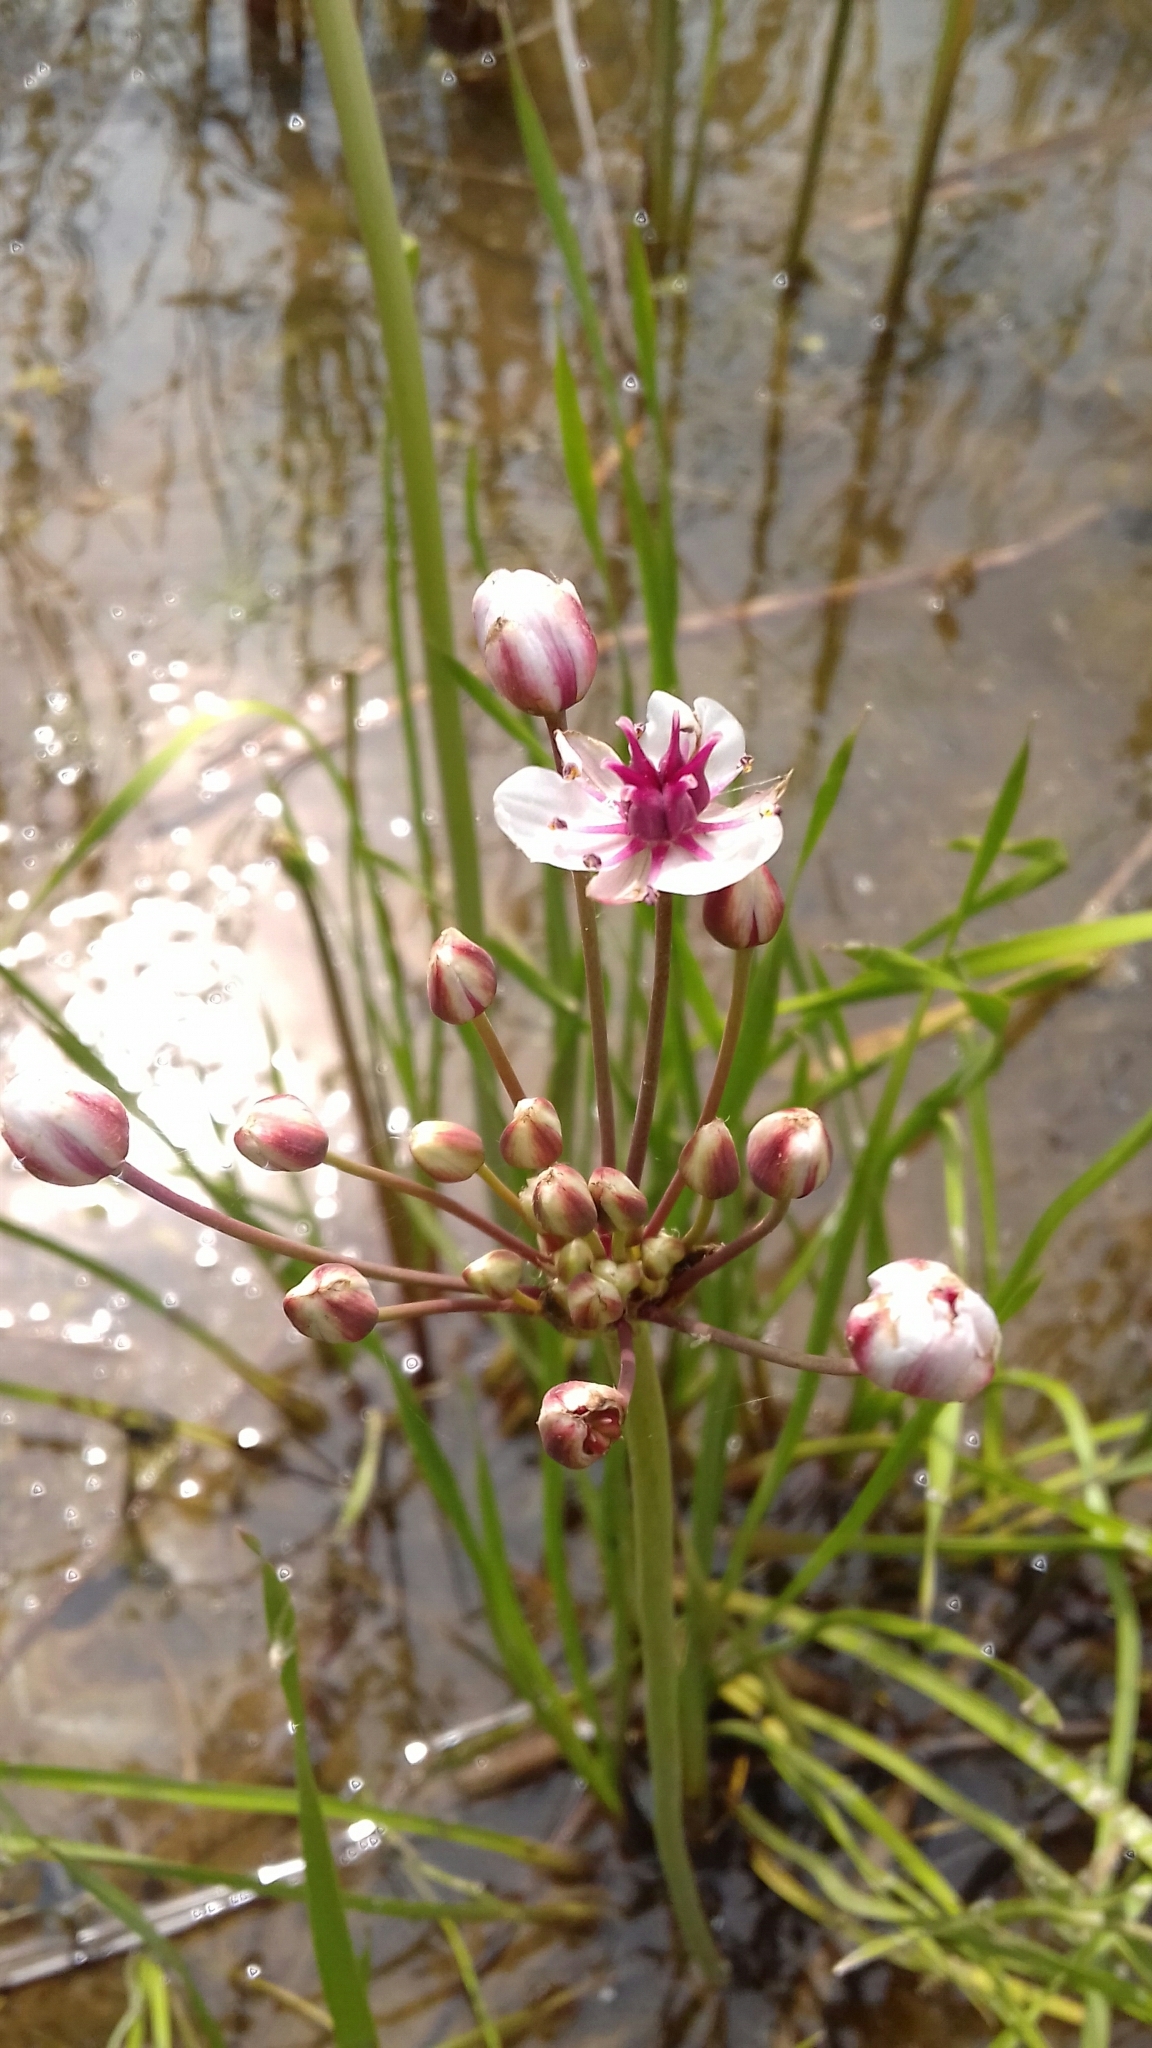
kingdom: Plantae
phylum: Tracheophyta
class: Liliopsida
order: Alismatales
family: Butomaceae
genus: Butomus
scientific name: Butomus umbellatus
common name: Flowering-rush
